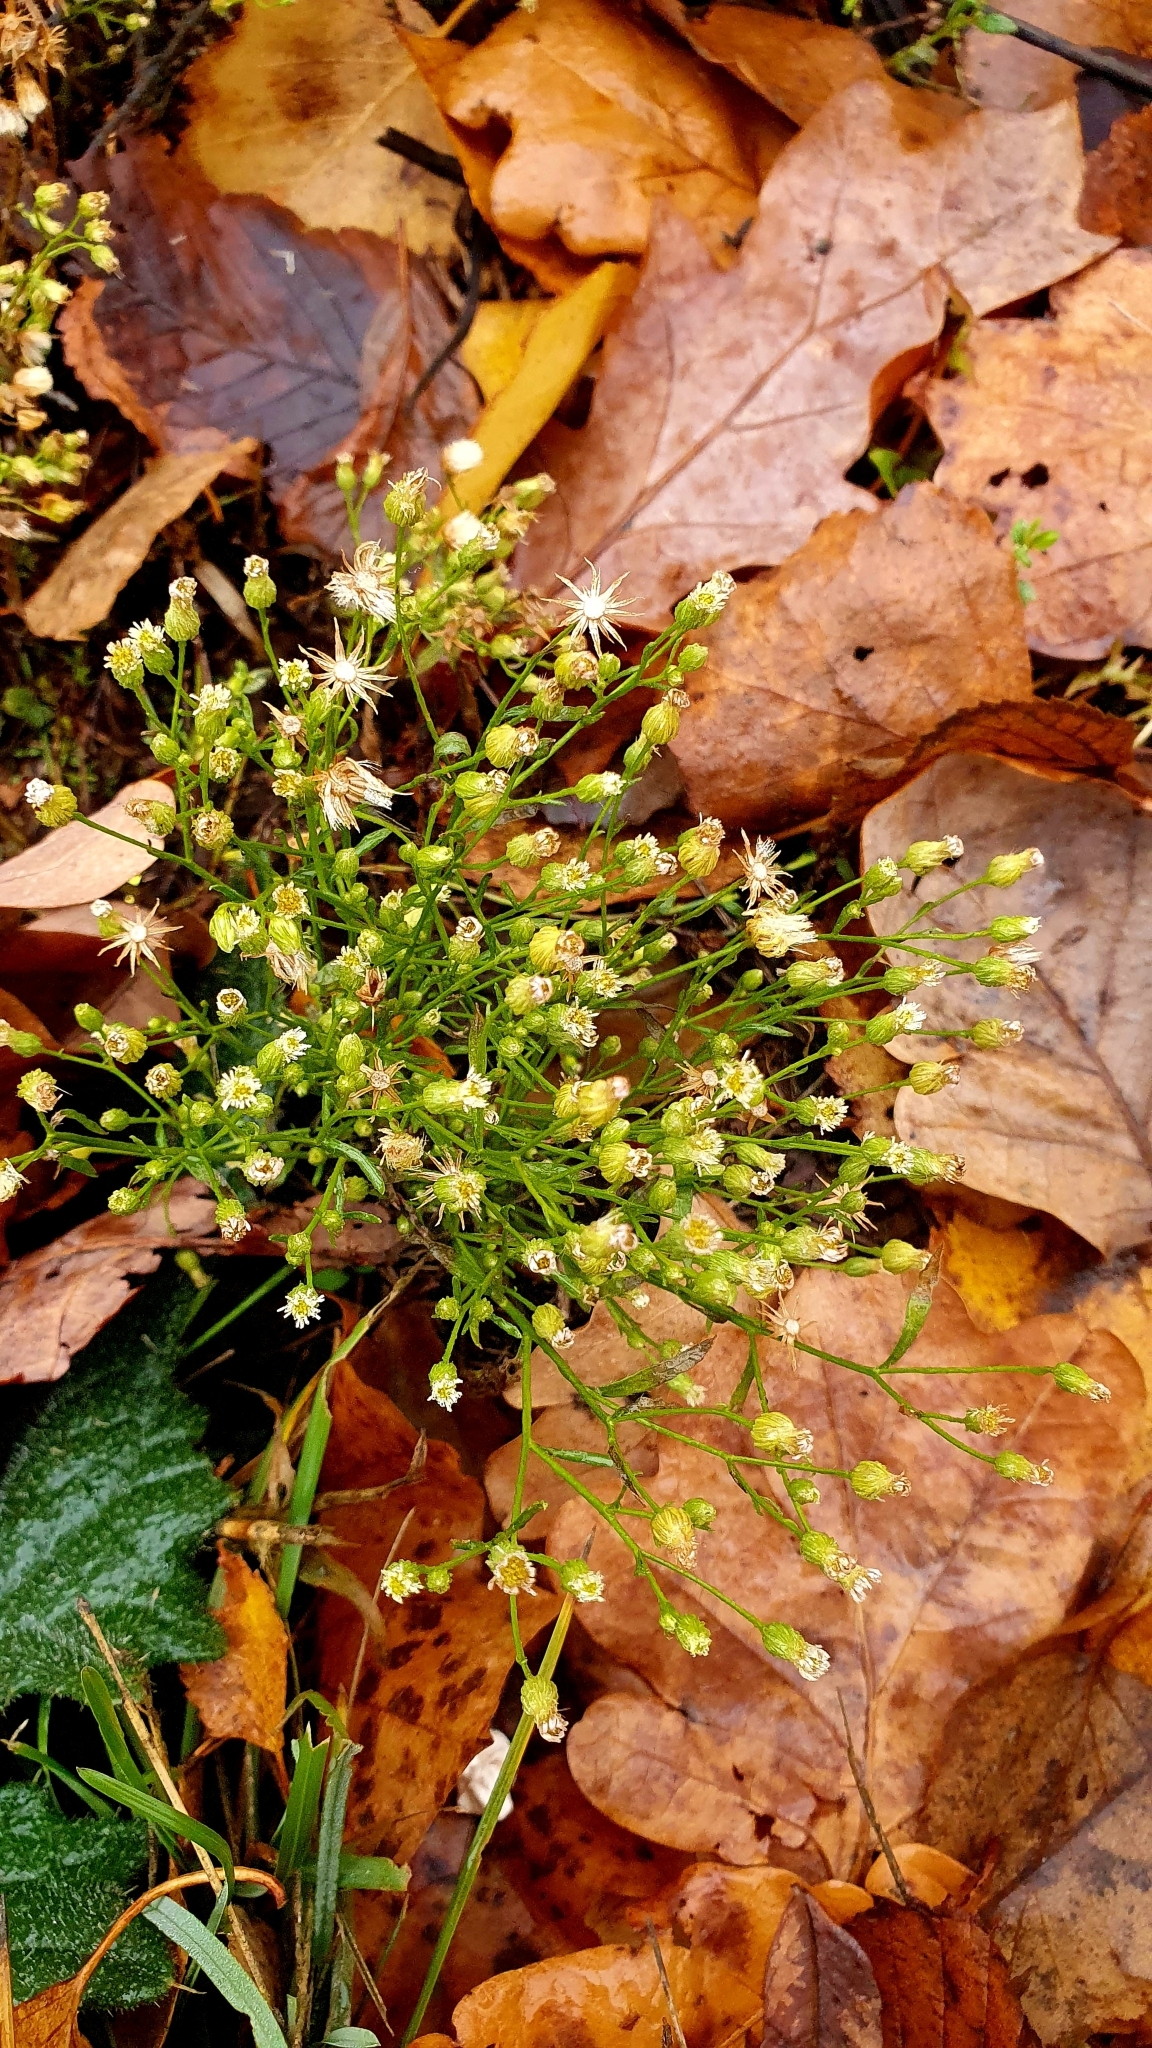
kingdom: Plantae
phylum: Tracheophyta
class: Magnoliopsida
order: Asterales
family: Asteraceae
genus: Erigeron
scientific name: Erigeron canadensis
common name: Canadian fleabane
